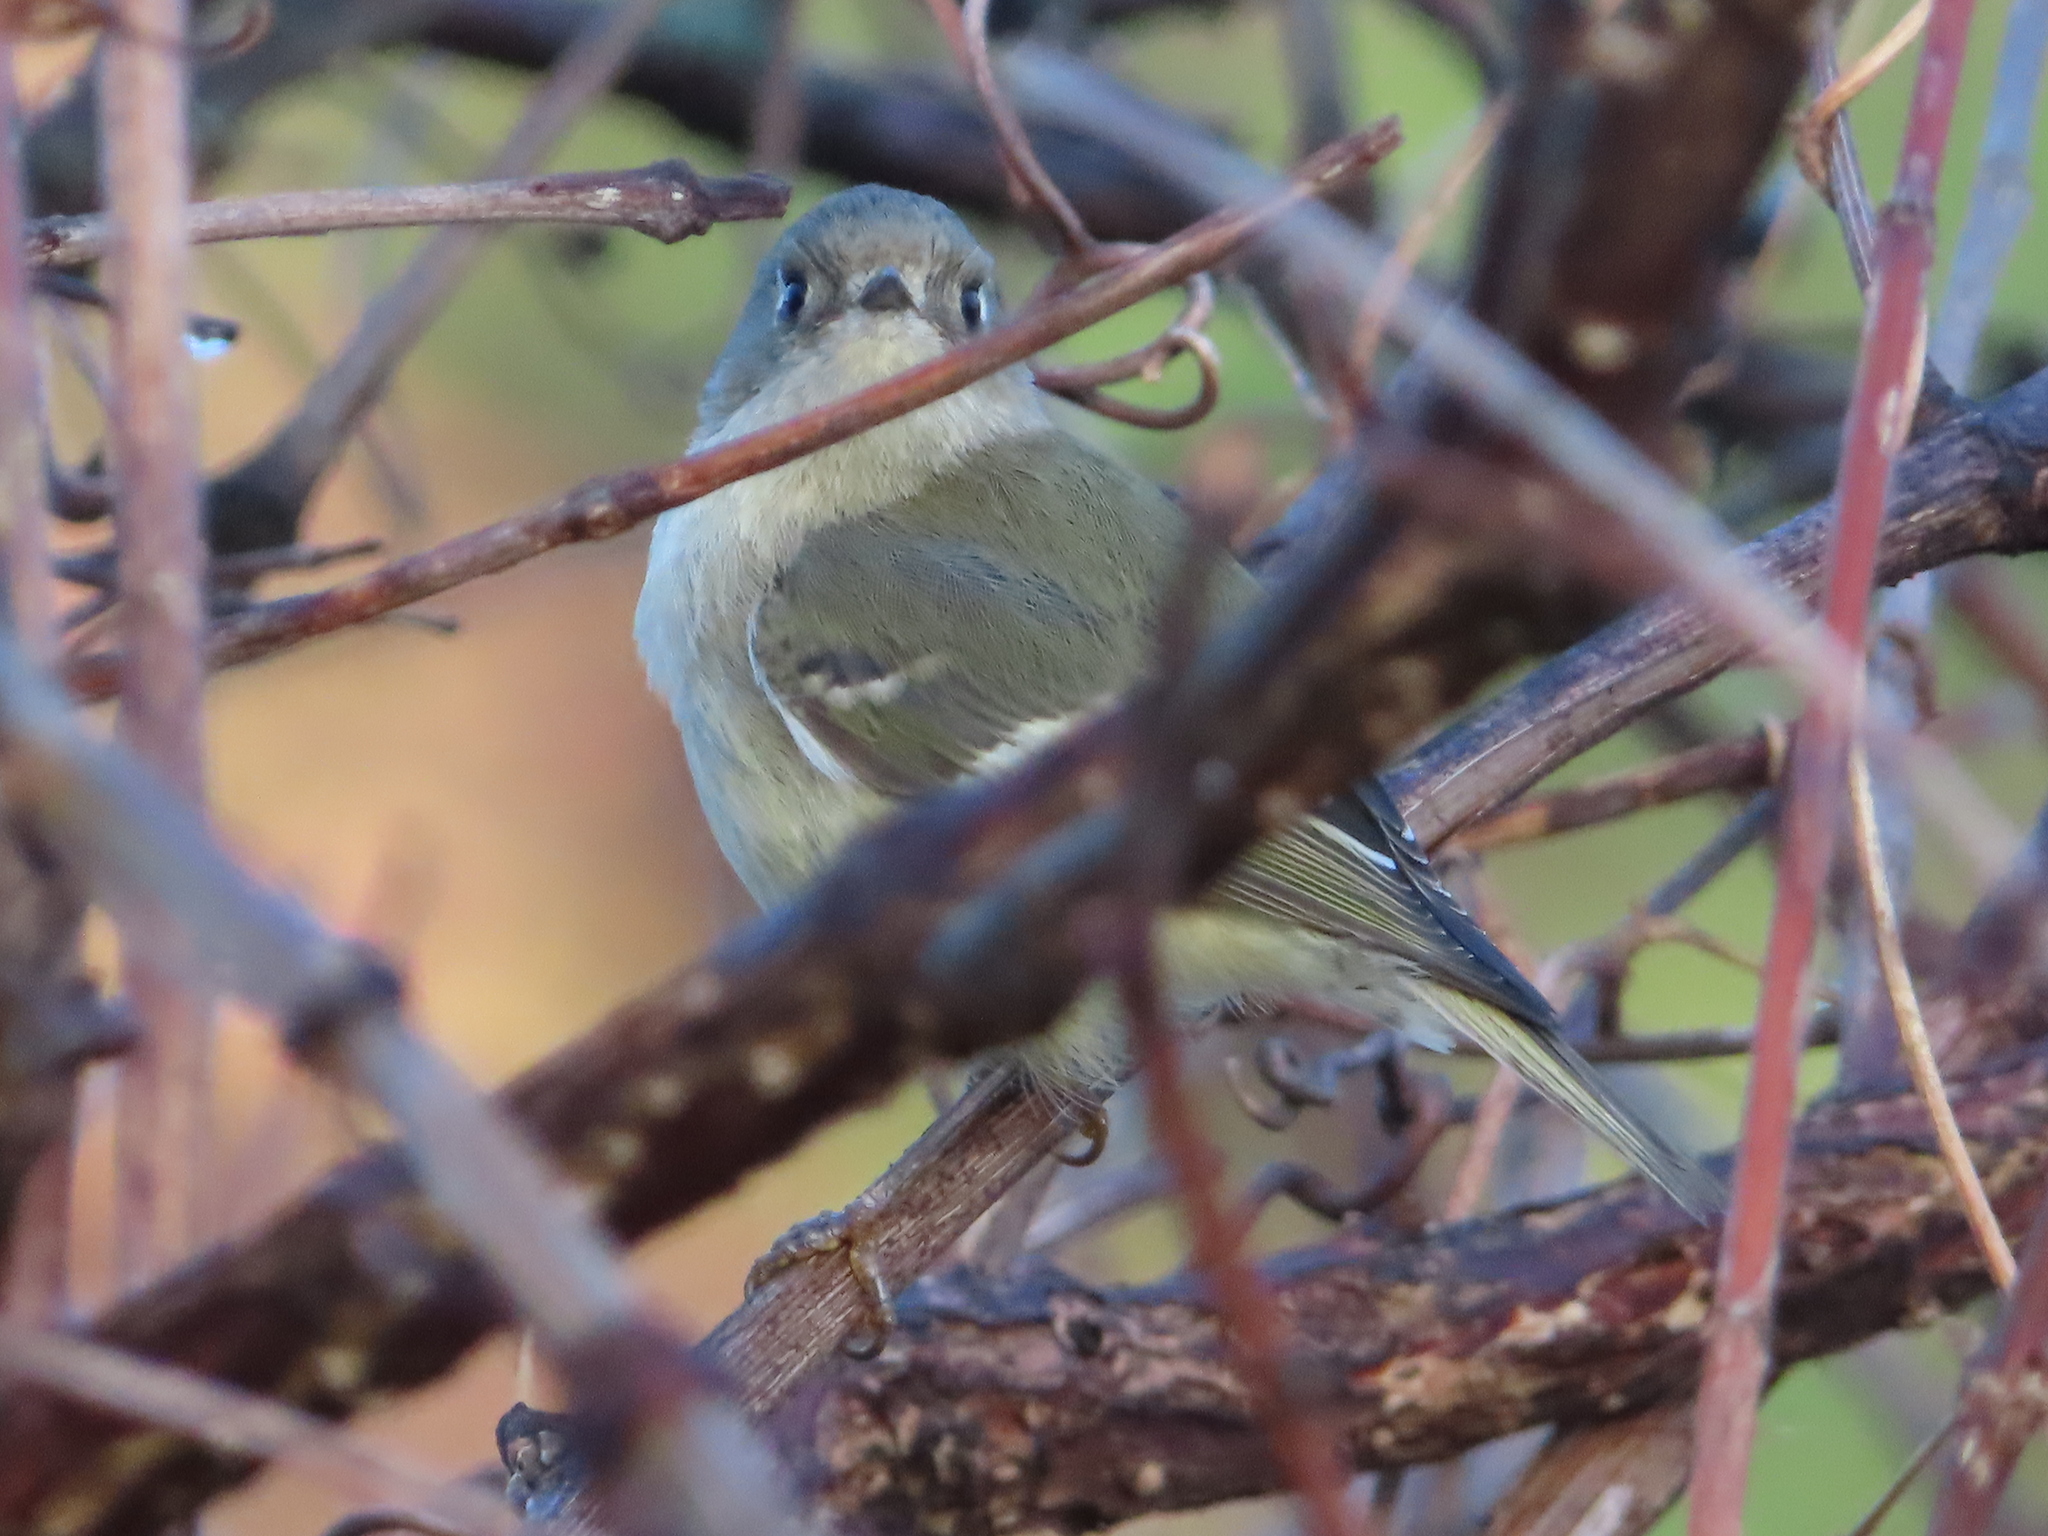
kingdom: Animalia
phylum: Chordata
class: Aves
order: Passeriformes
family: Regulidae
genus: Regulus
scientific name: Regulus calendula
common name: Ruby-crowned kinglet
